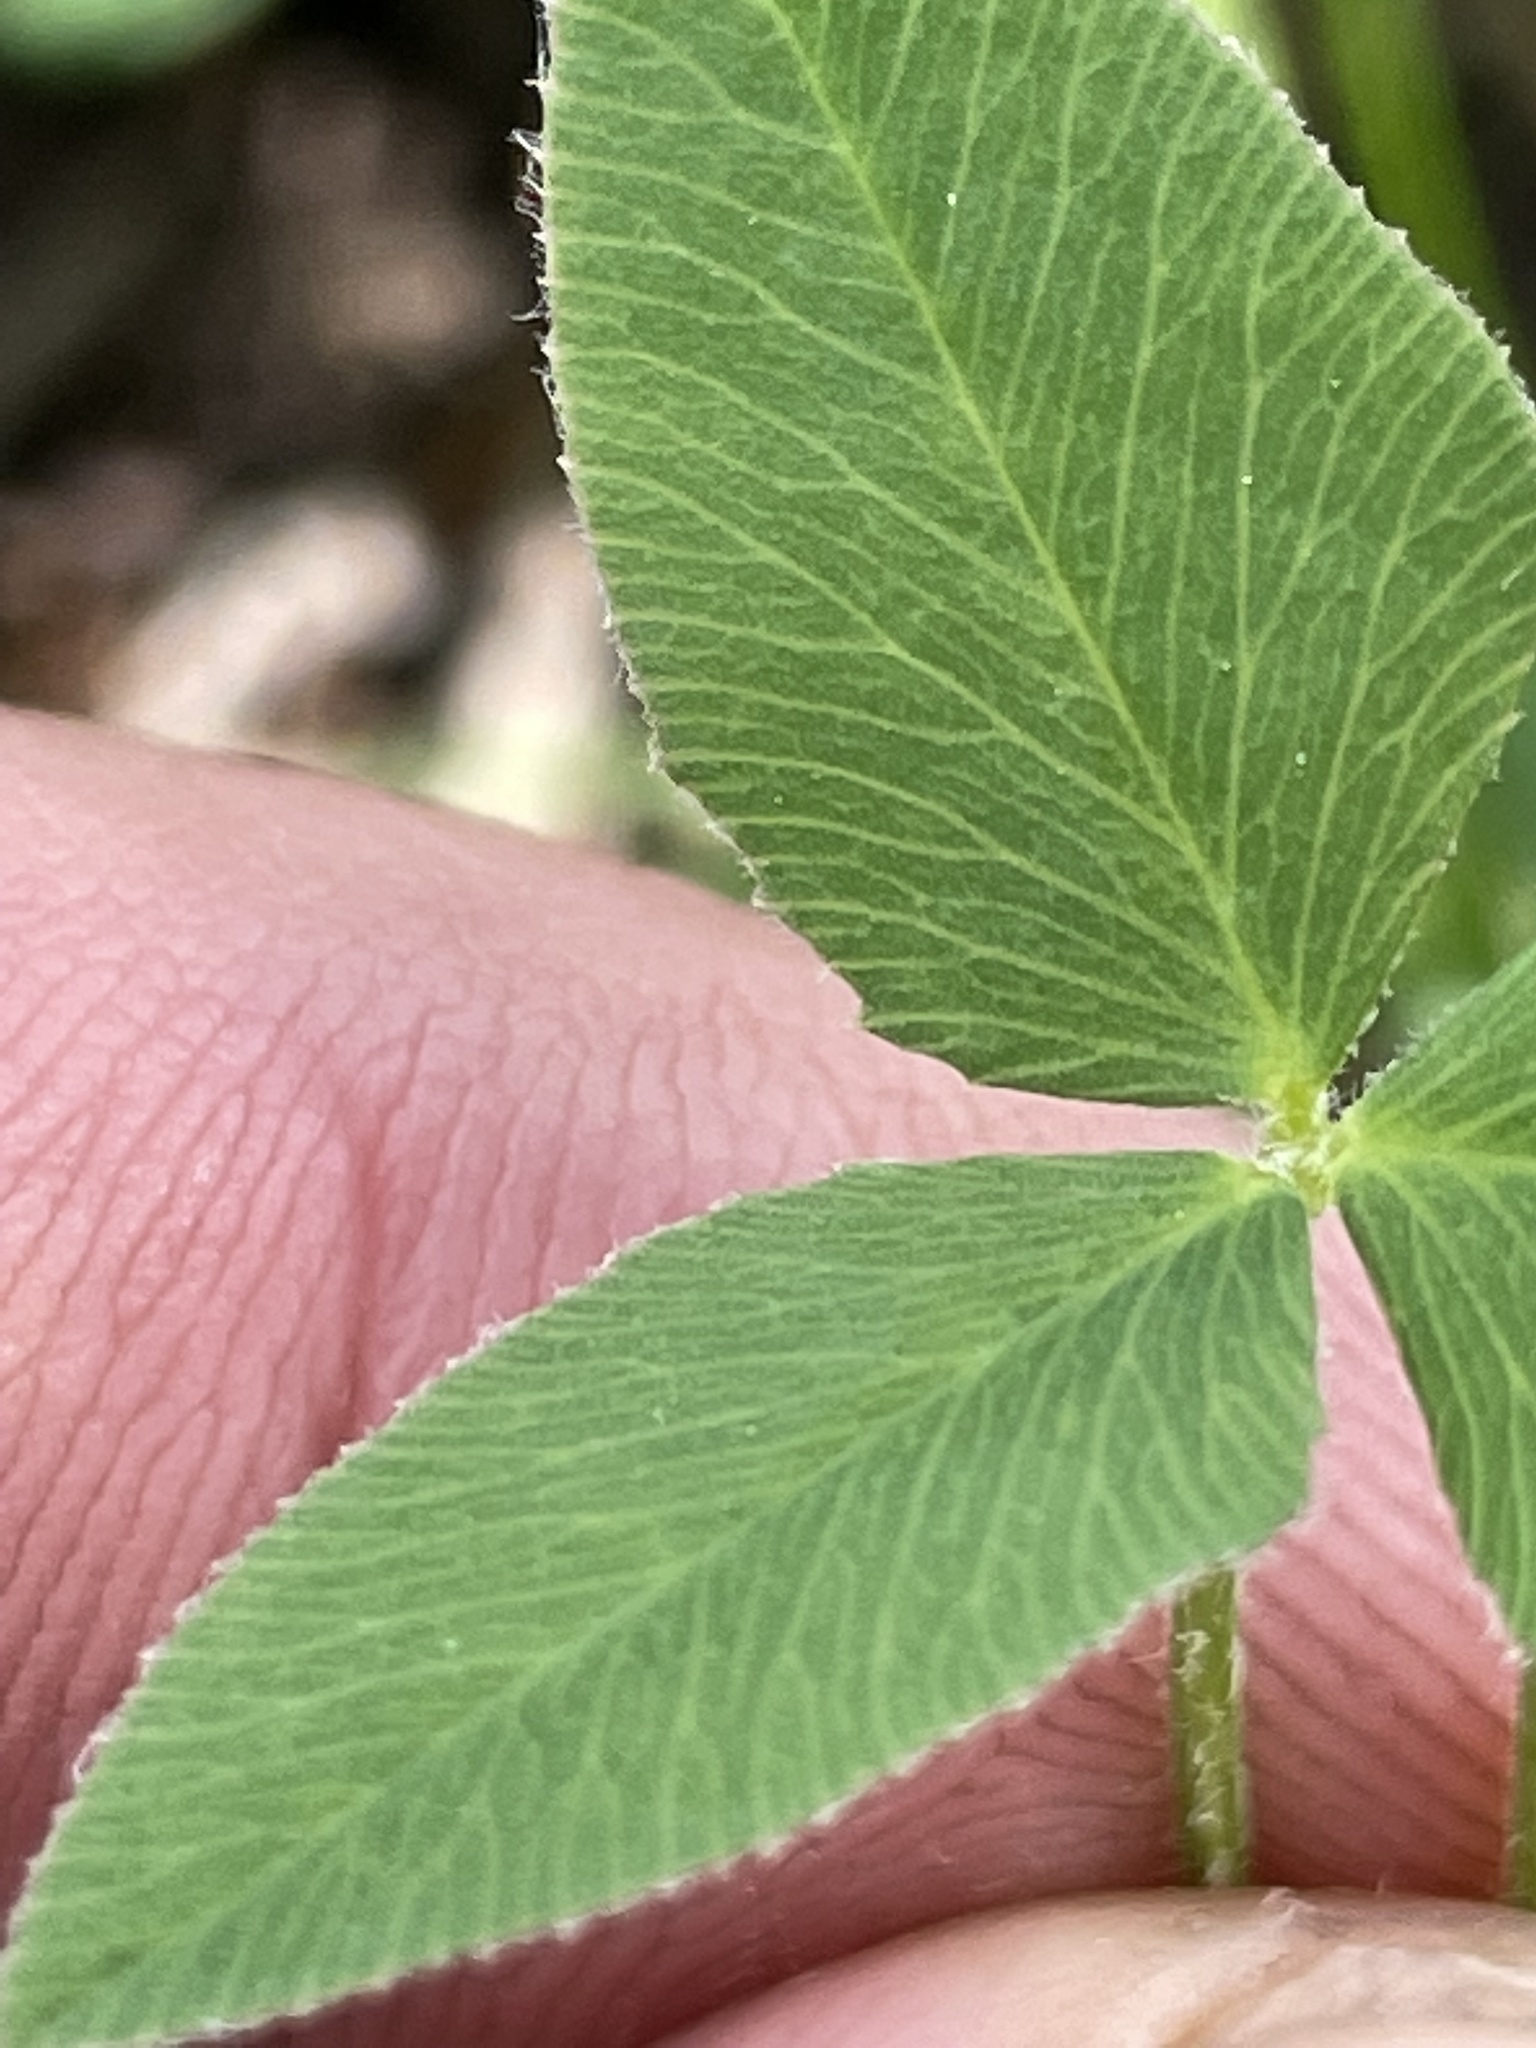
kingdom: Plantae
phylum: Tracheophyta
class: Magnoliopsida
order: Fabales
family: Fabaceae
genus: Trifolium
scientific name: Trifolium latifolium
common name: Broadleaf clover
